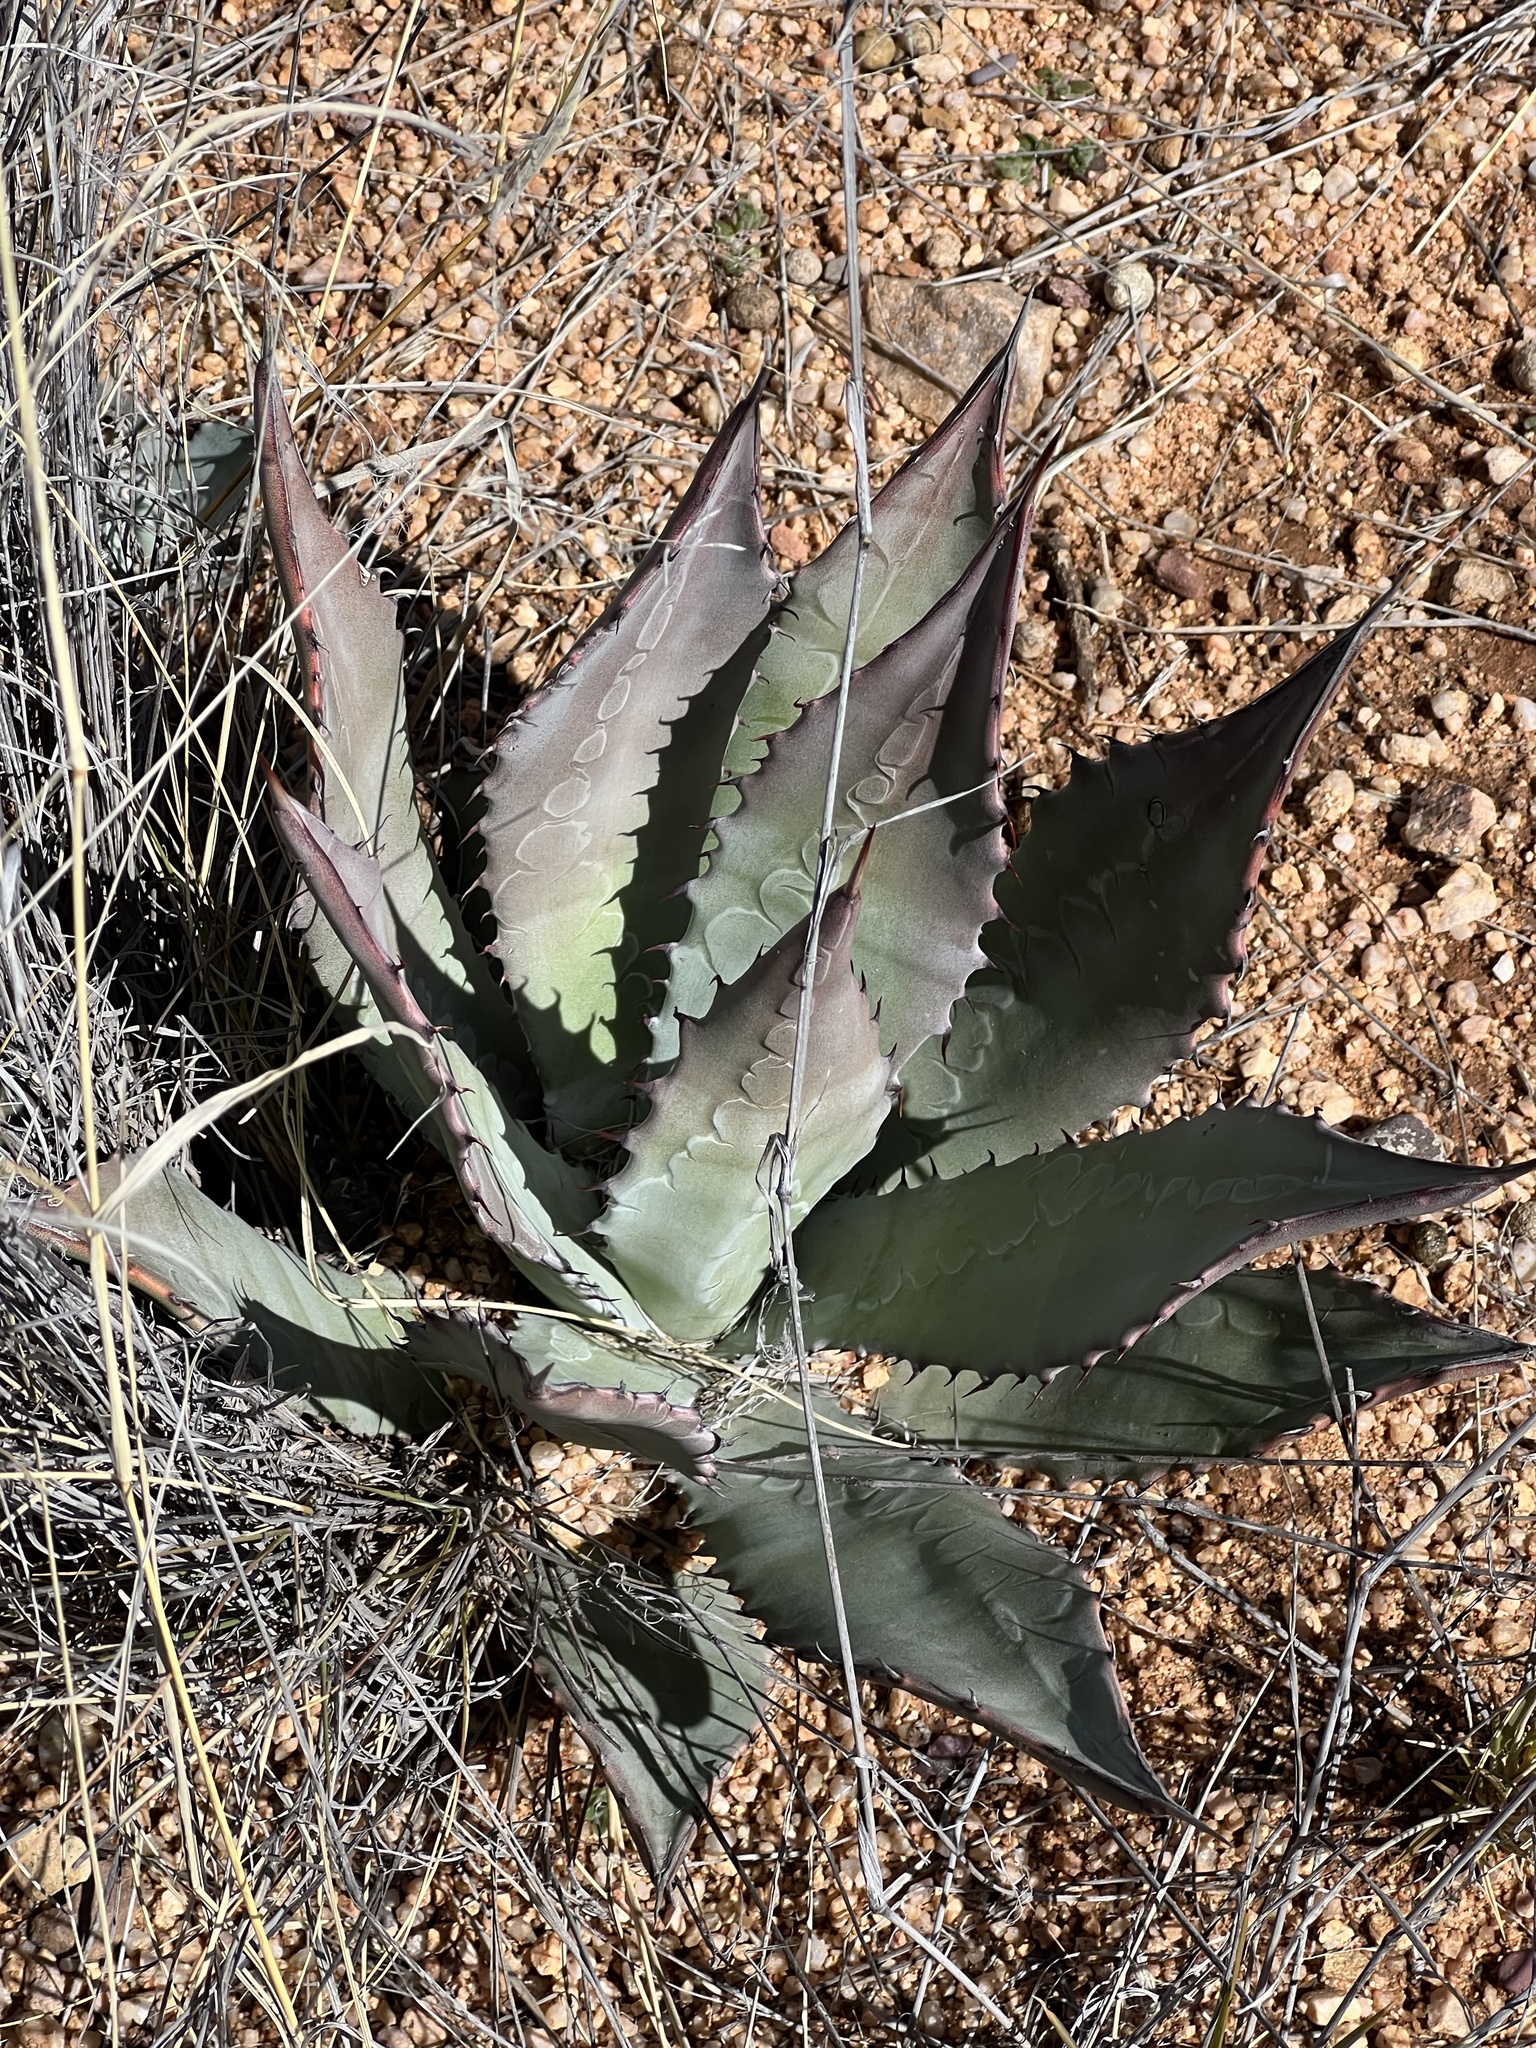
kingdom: Plantae
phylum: Tracheophyta
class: Liliopsida
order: Asparagales
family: Asparagaceae
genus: Agave
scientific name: Agave palmeri
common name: Palmer agave
